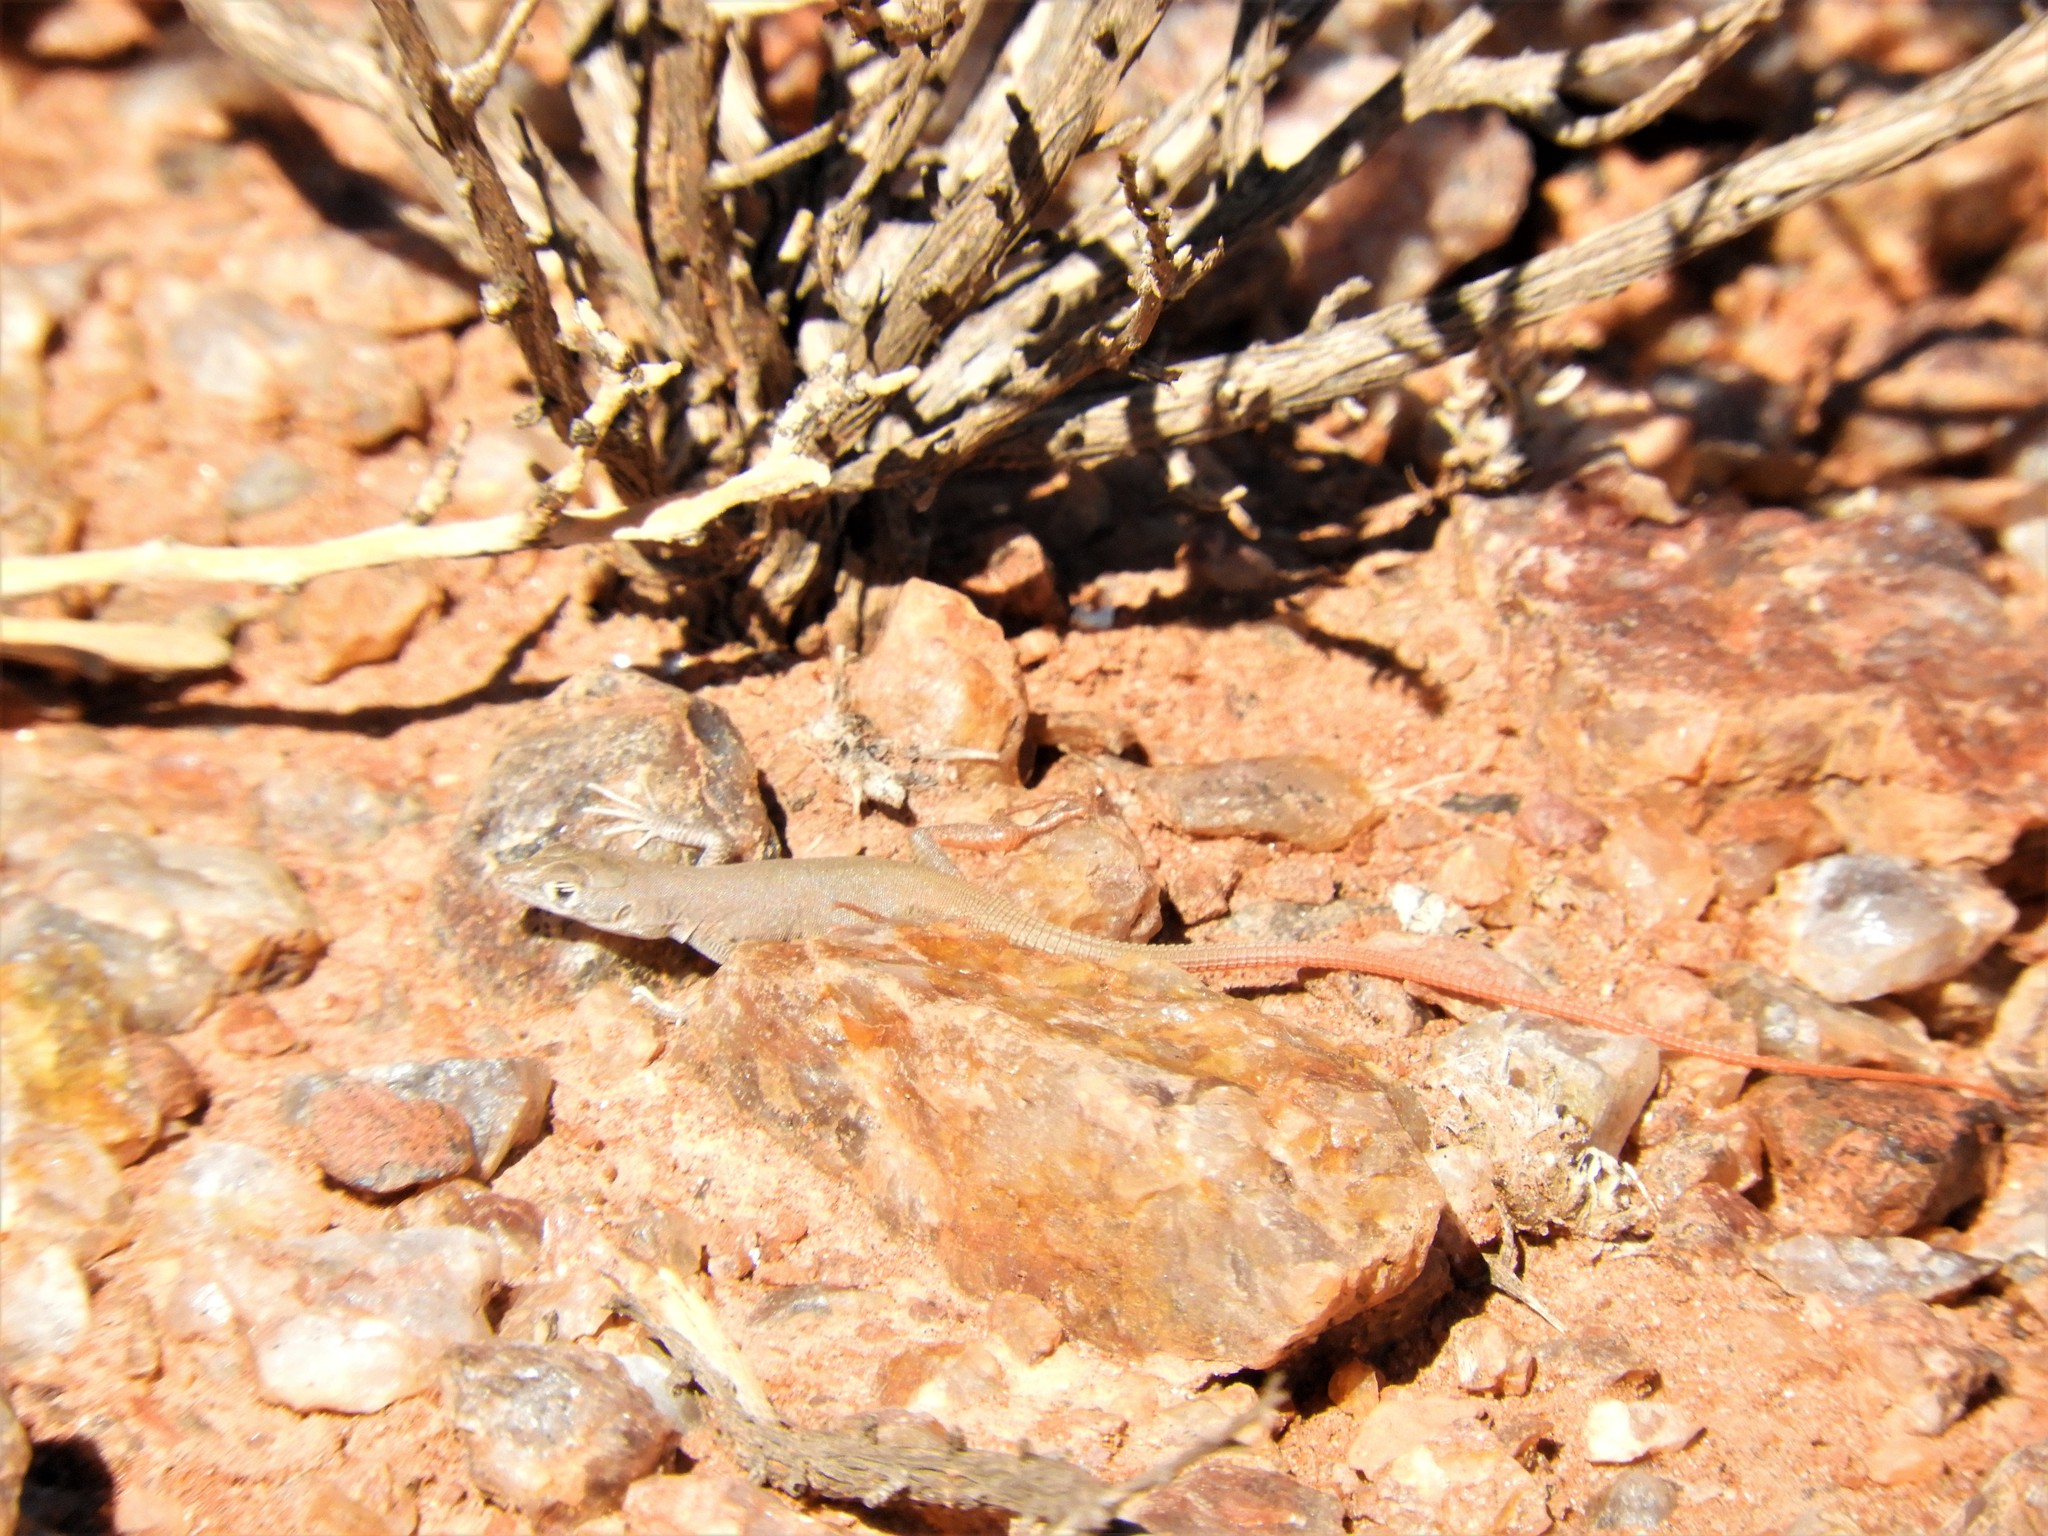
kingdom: Animalia
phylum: Chordata
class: Squamata
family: Lacertidae
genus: Pedioplanis
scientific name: Pedioplanis inornata
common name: Plain sand lizard
